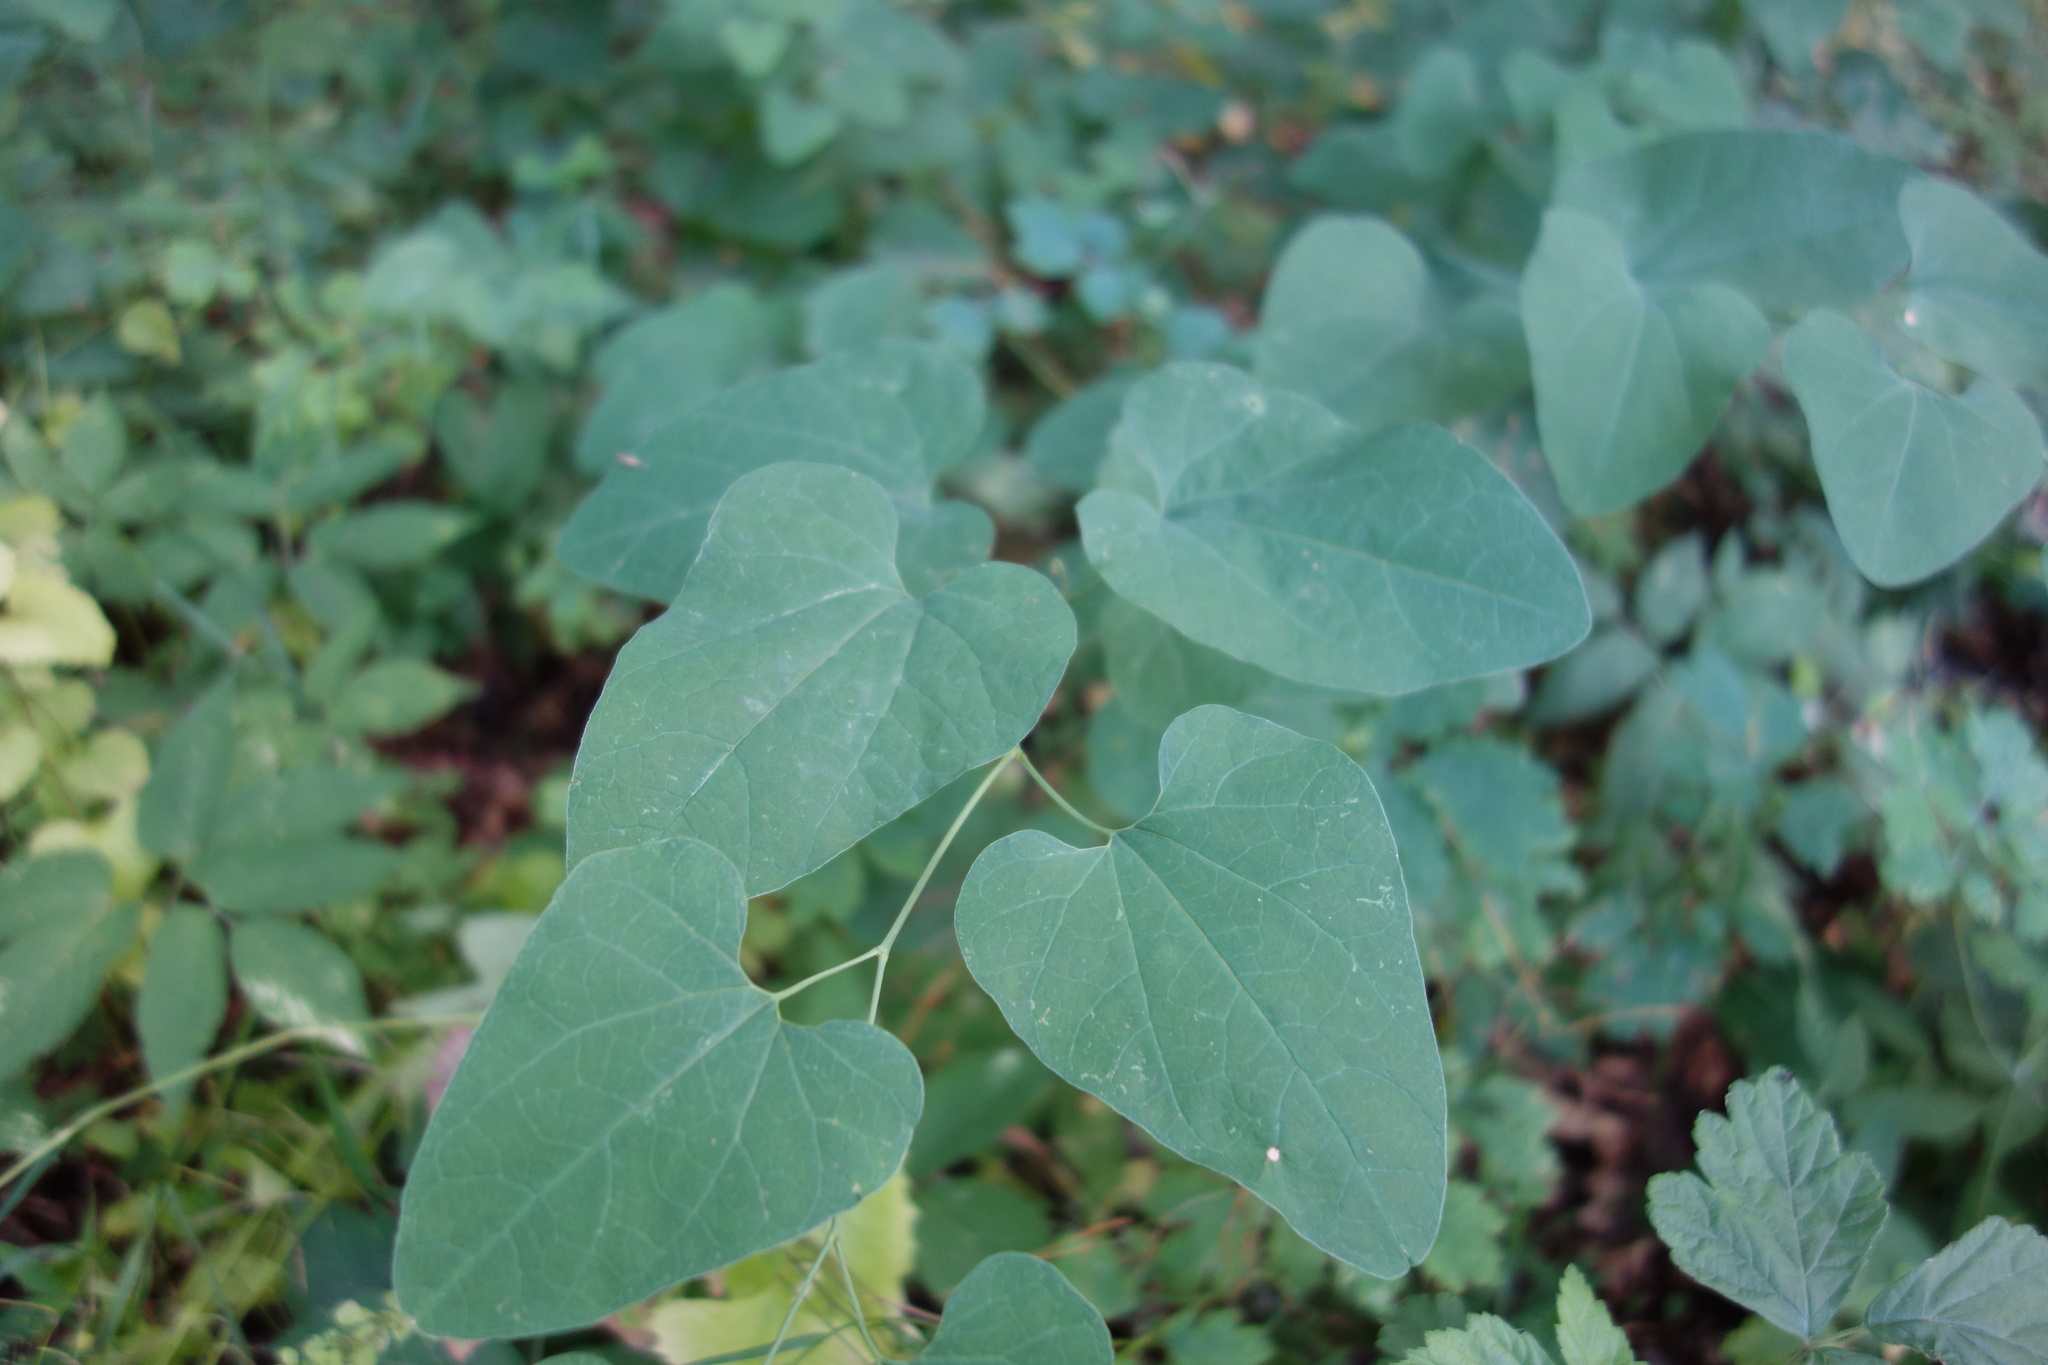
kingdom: Plantae
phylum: Tracheophyta
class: Magnoliopsida
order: Piperales
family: Aristolochiaceae
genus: Aristolochia
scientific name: Aristolochia clematitis
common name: Birthwort
